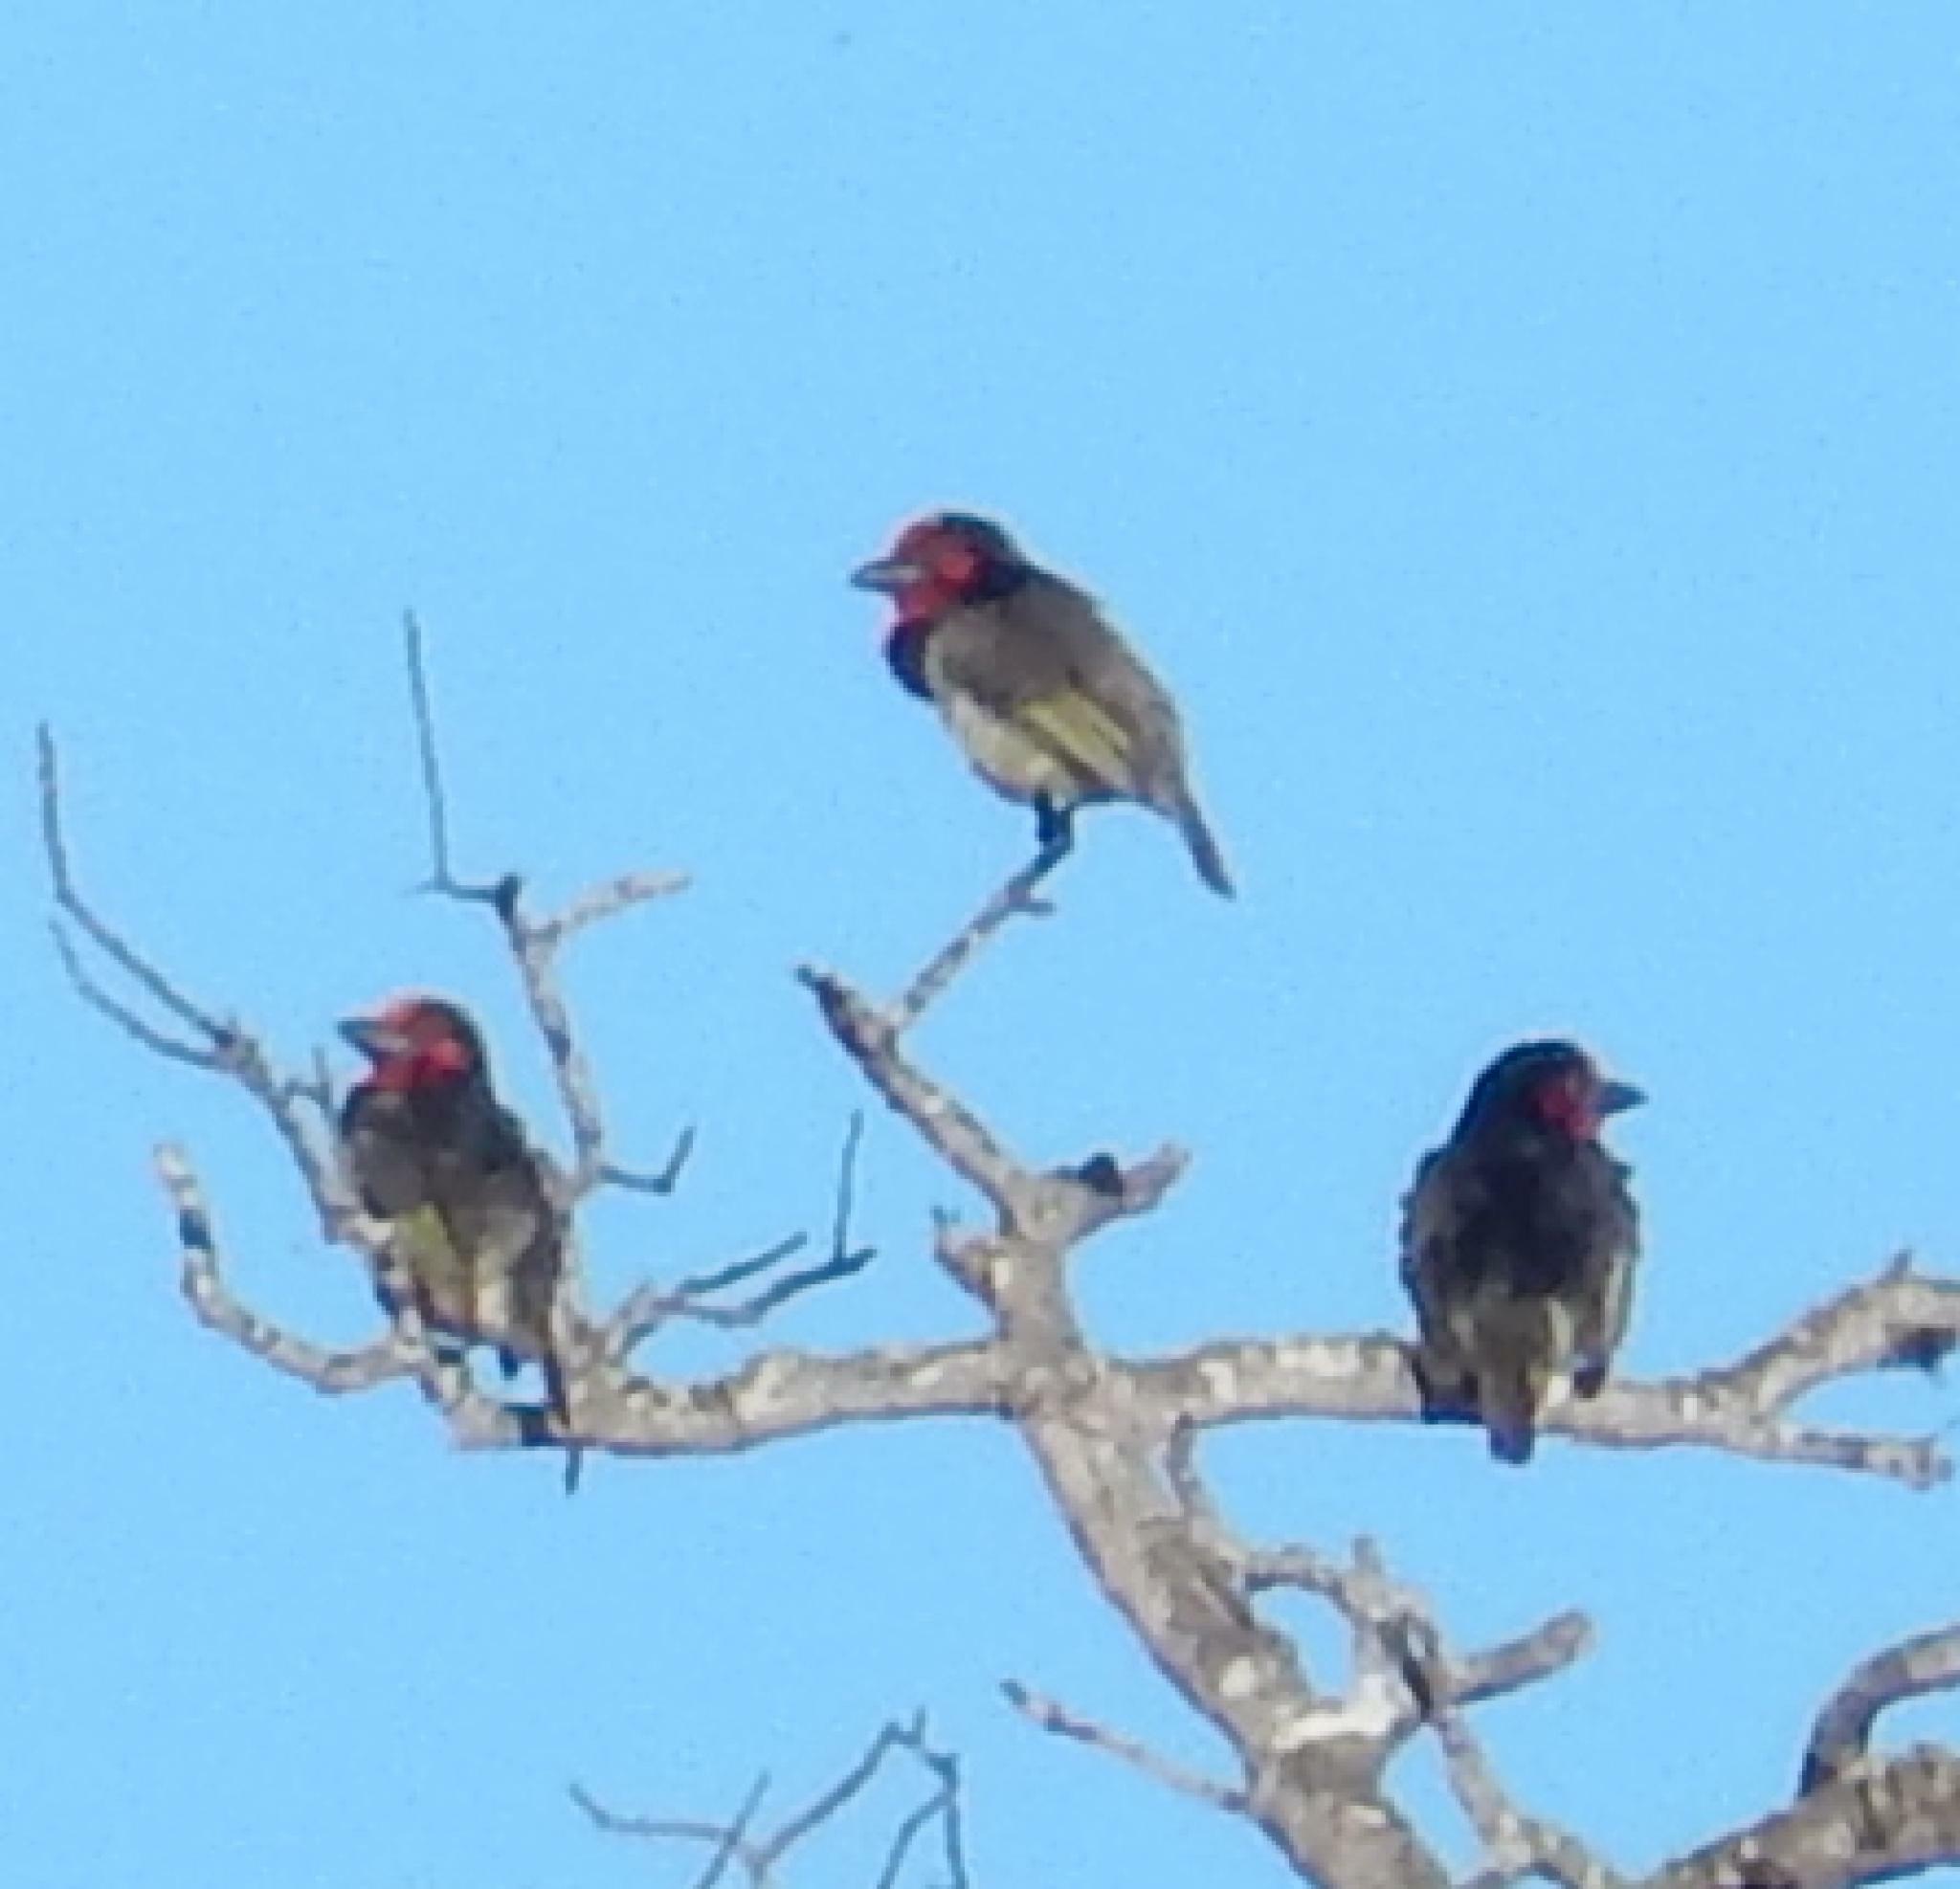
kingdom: Animalia
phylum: Chordata
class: Aves
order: Piciformes
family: Lybiidae
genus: Lybius
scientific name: Lybius torquatus
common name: Black-collared barbet
